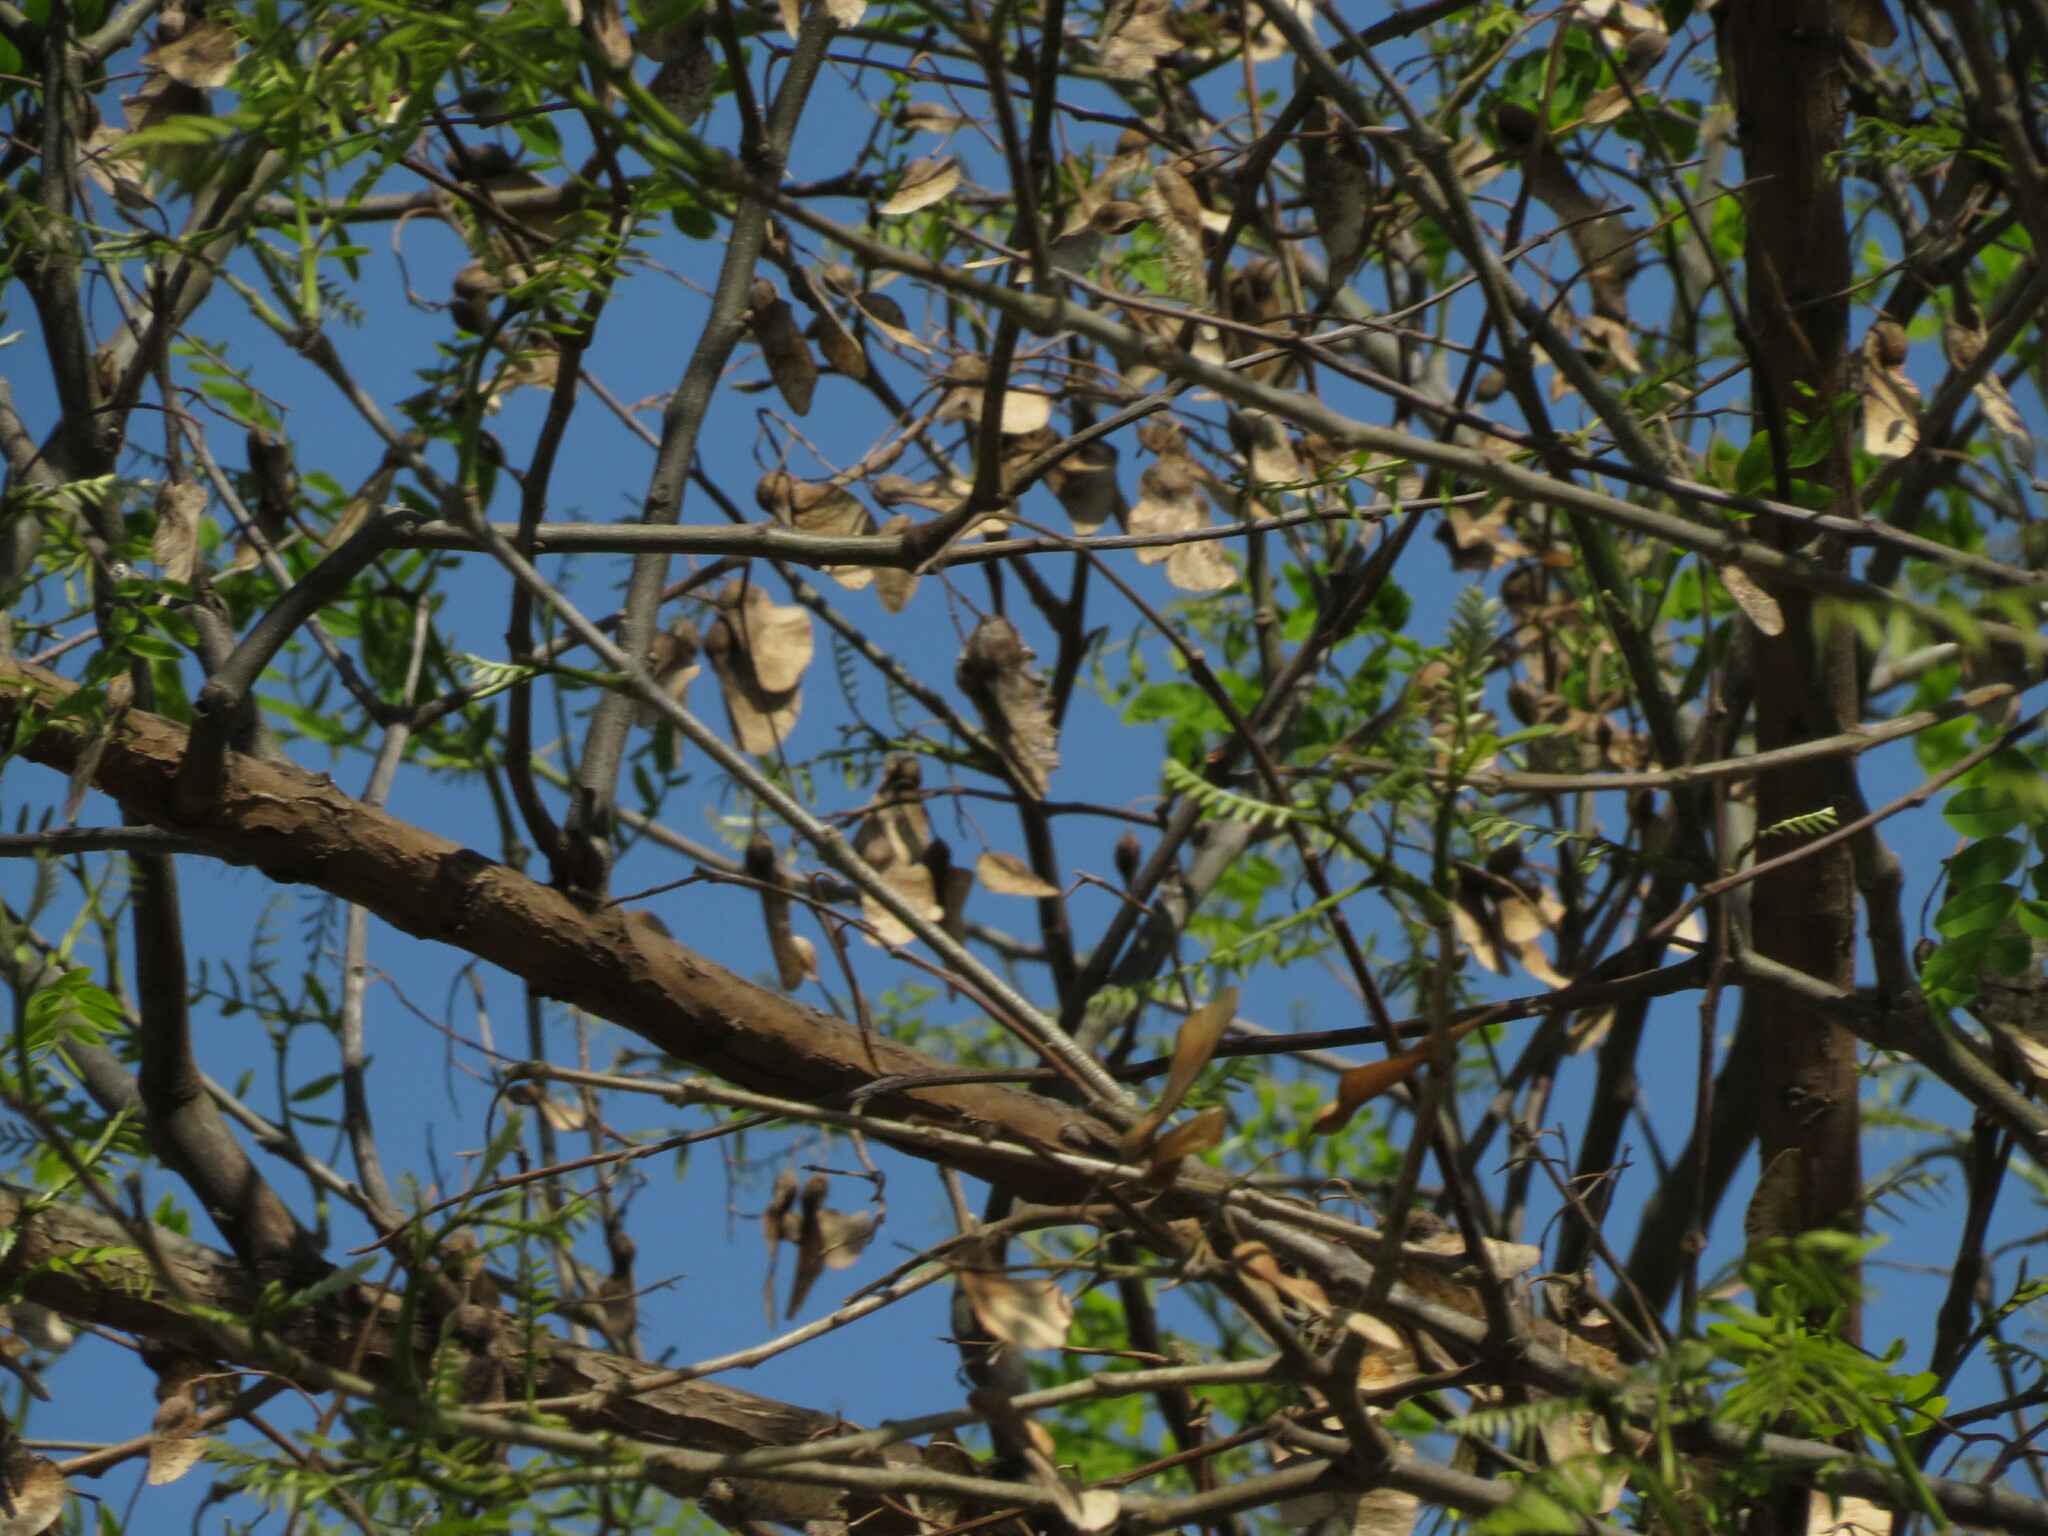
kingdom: Plantae
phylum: Tracheophyta
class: Magnoliopsida
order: Fabales
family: Fabaceae
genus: Tipuana
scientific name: Tipuana tipu
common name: Tiputree
